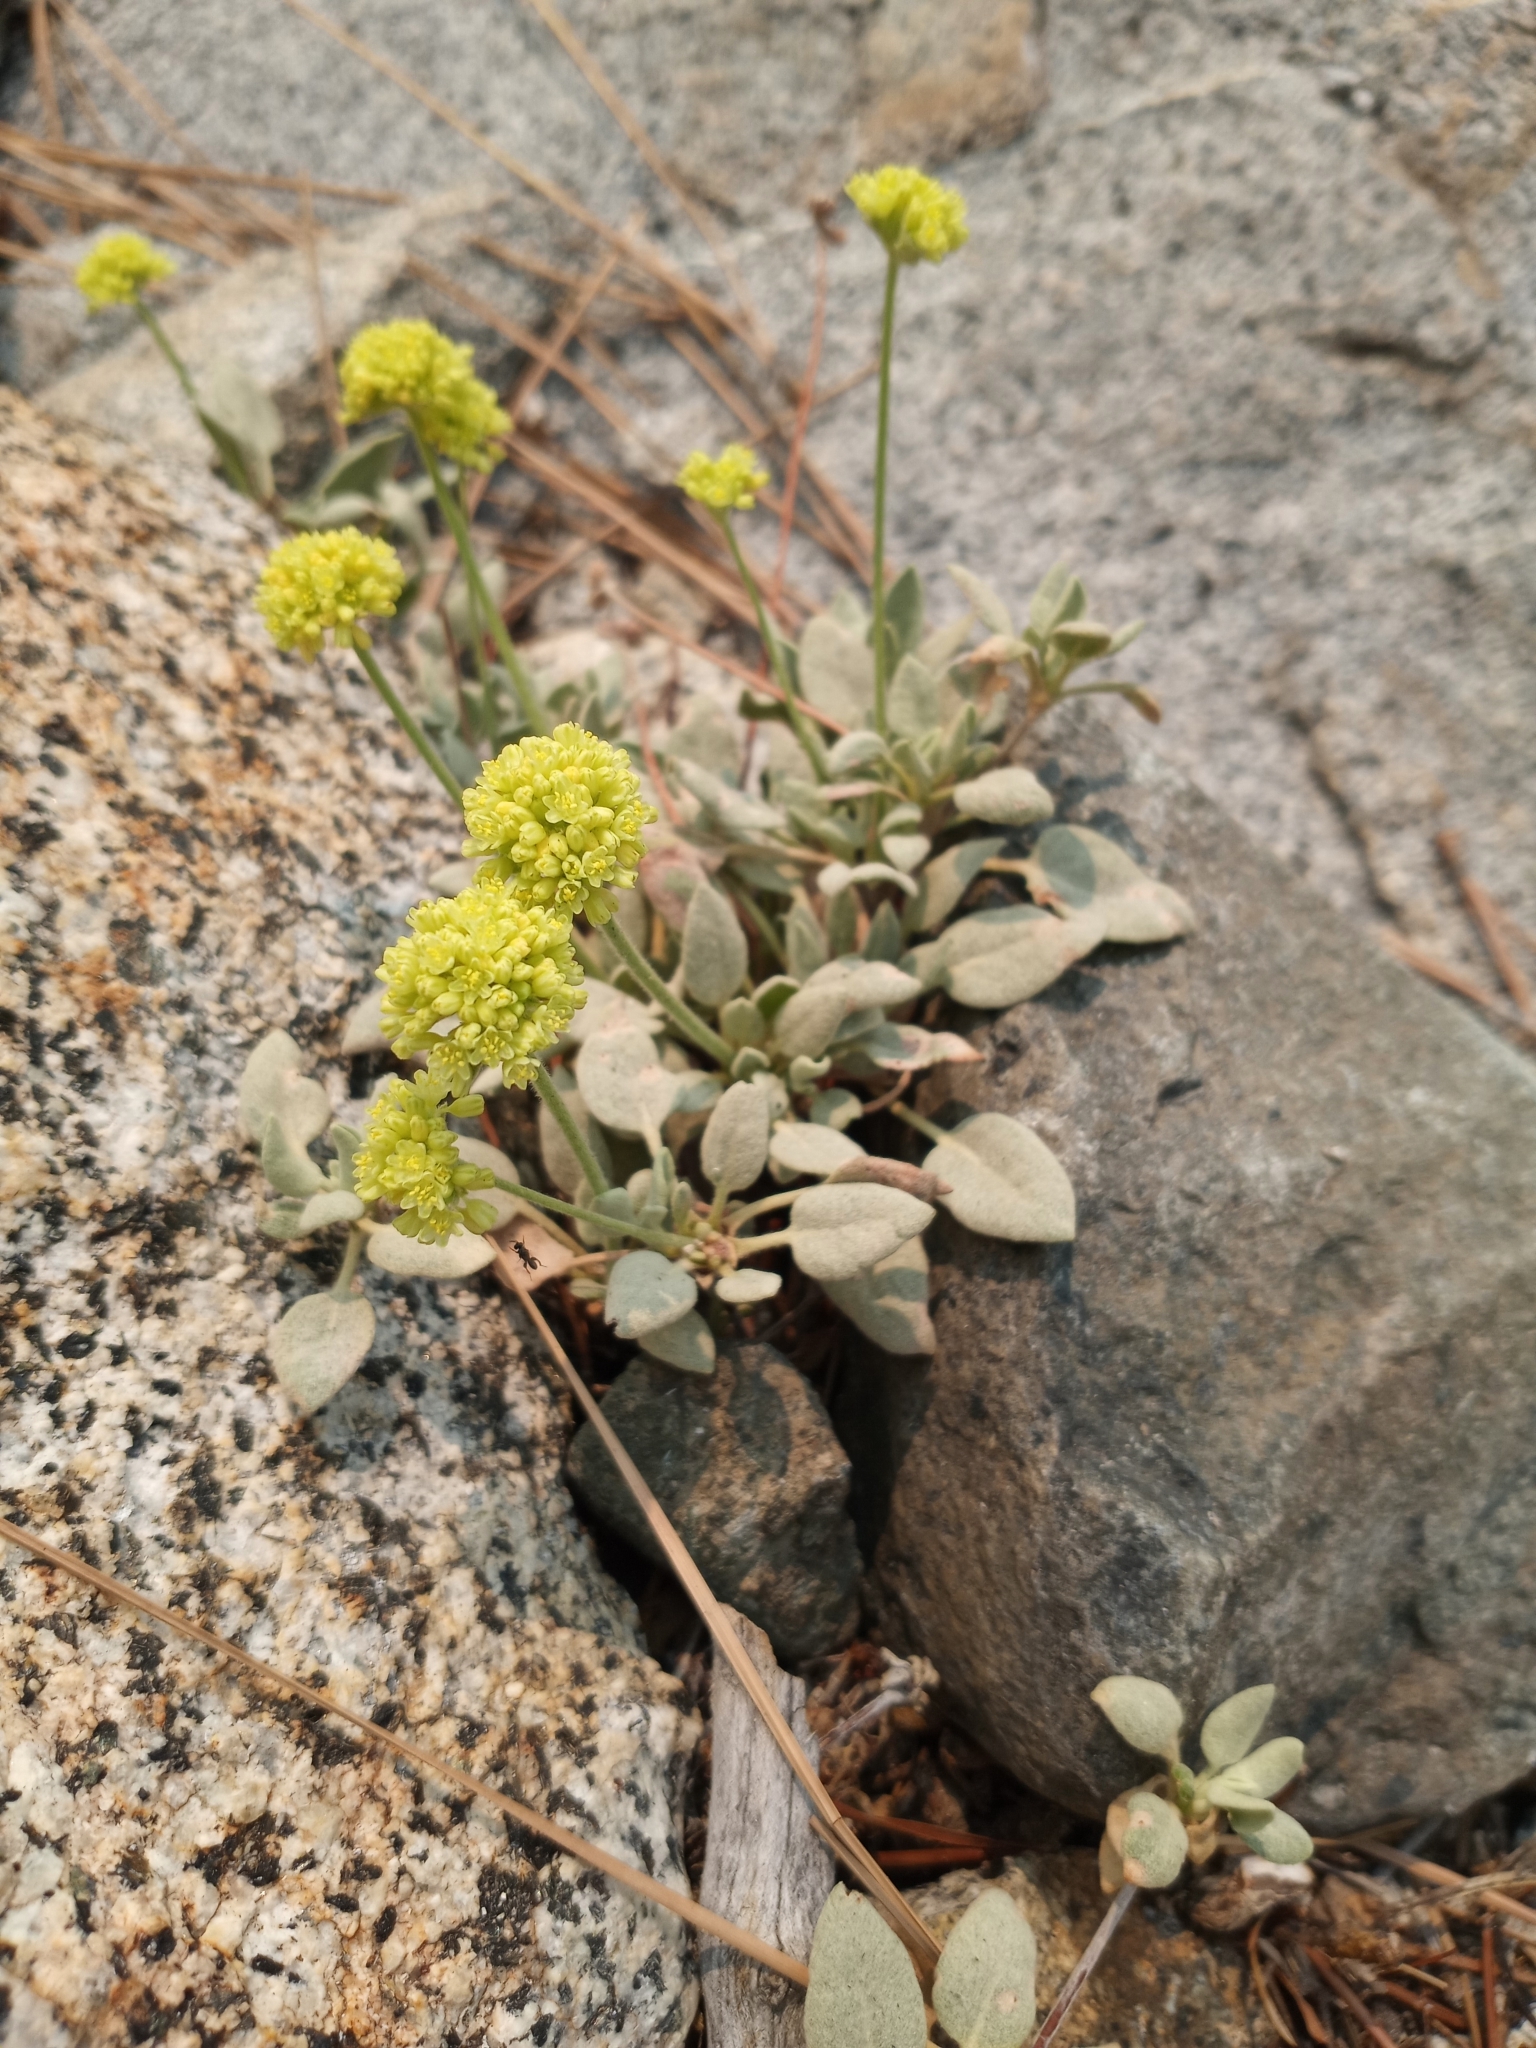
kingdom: Plantae
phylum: Tracheophyta
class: Magnoliopsida
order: Caryophyllales
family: Polygonaceae
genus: Eriogonum
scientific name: Eriogonum incanum
